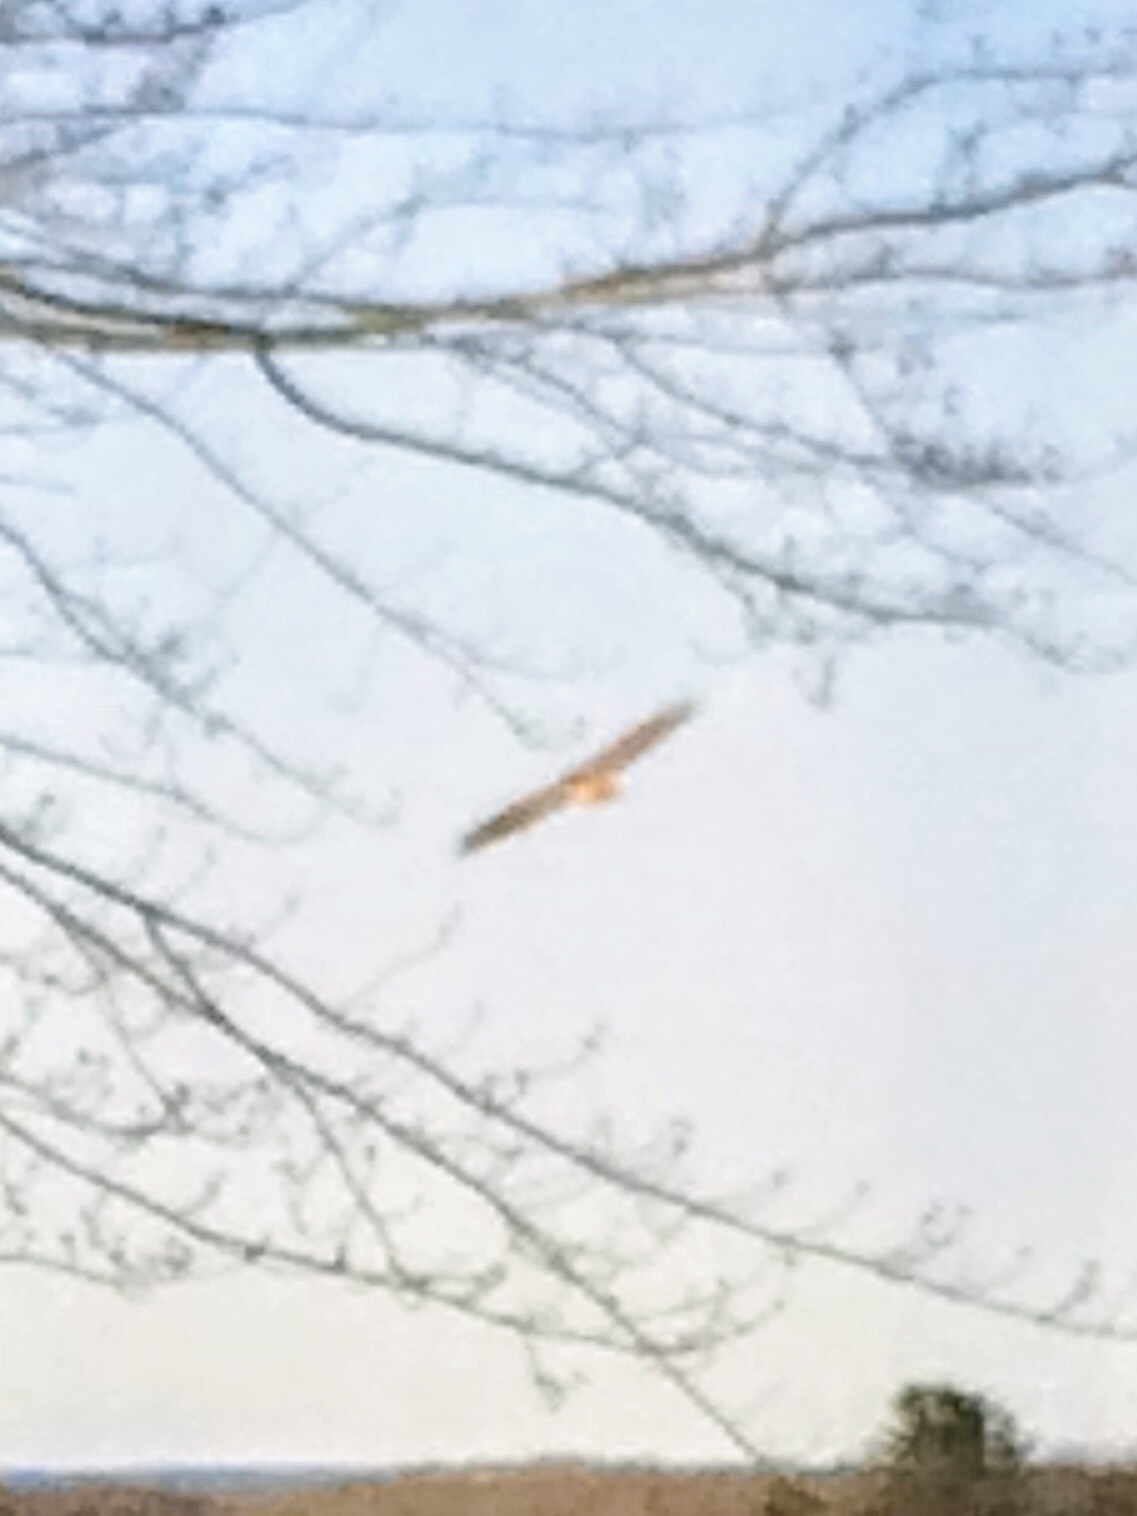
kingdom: Animalia
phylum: Chordata
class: Aves
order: Accipitriformes
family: Accipitridae
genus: Buteo
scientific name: Buteo jamaicensis
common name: Red-tailed hawk
